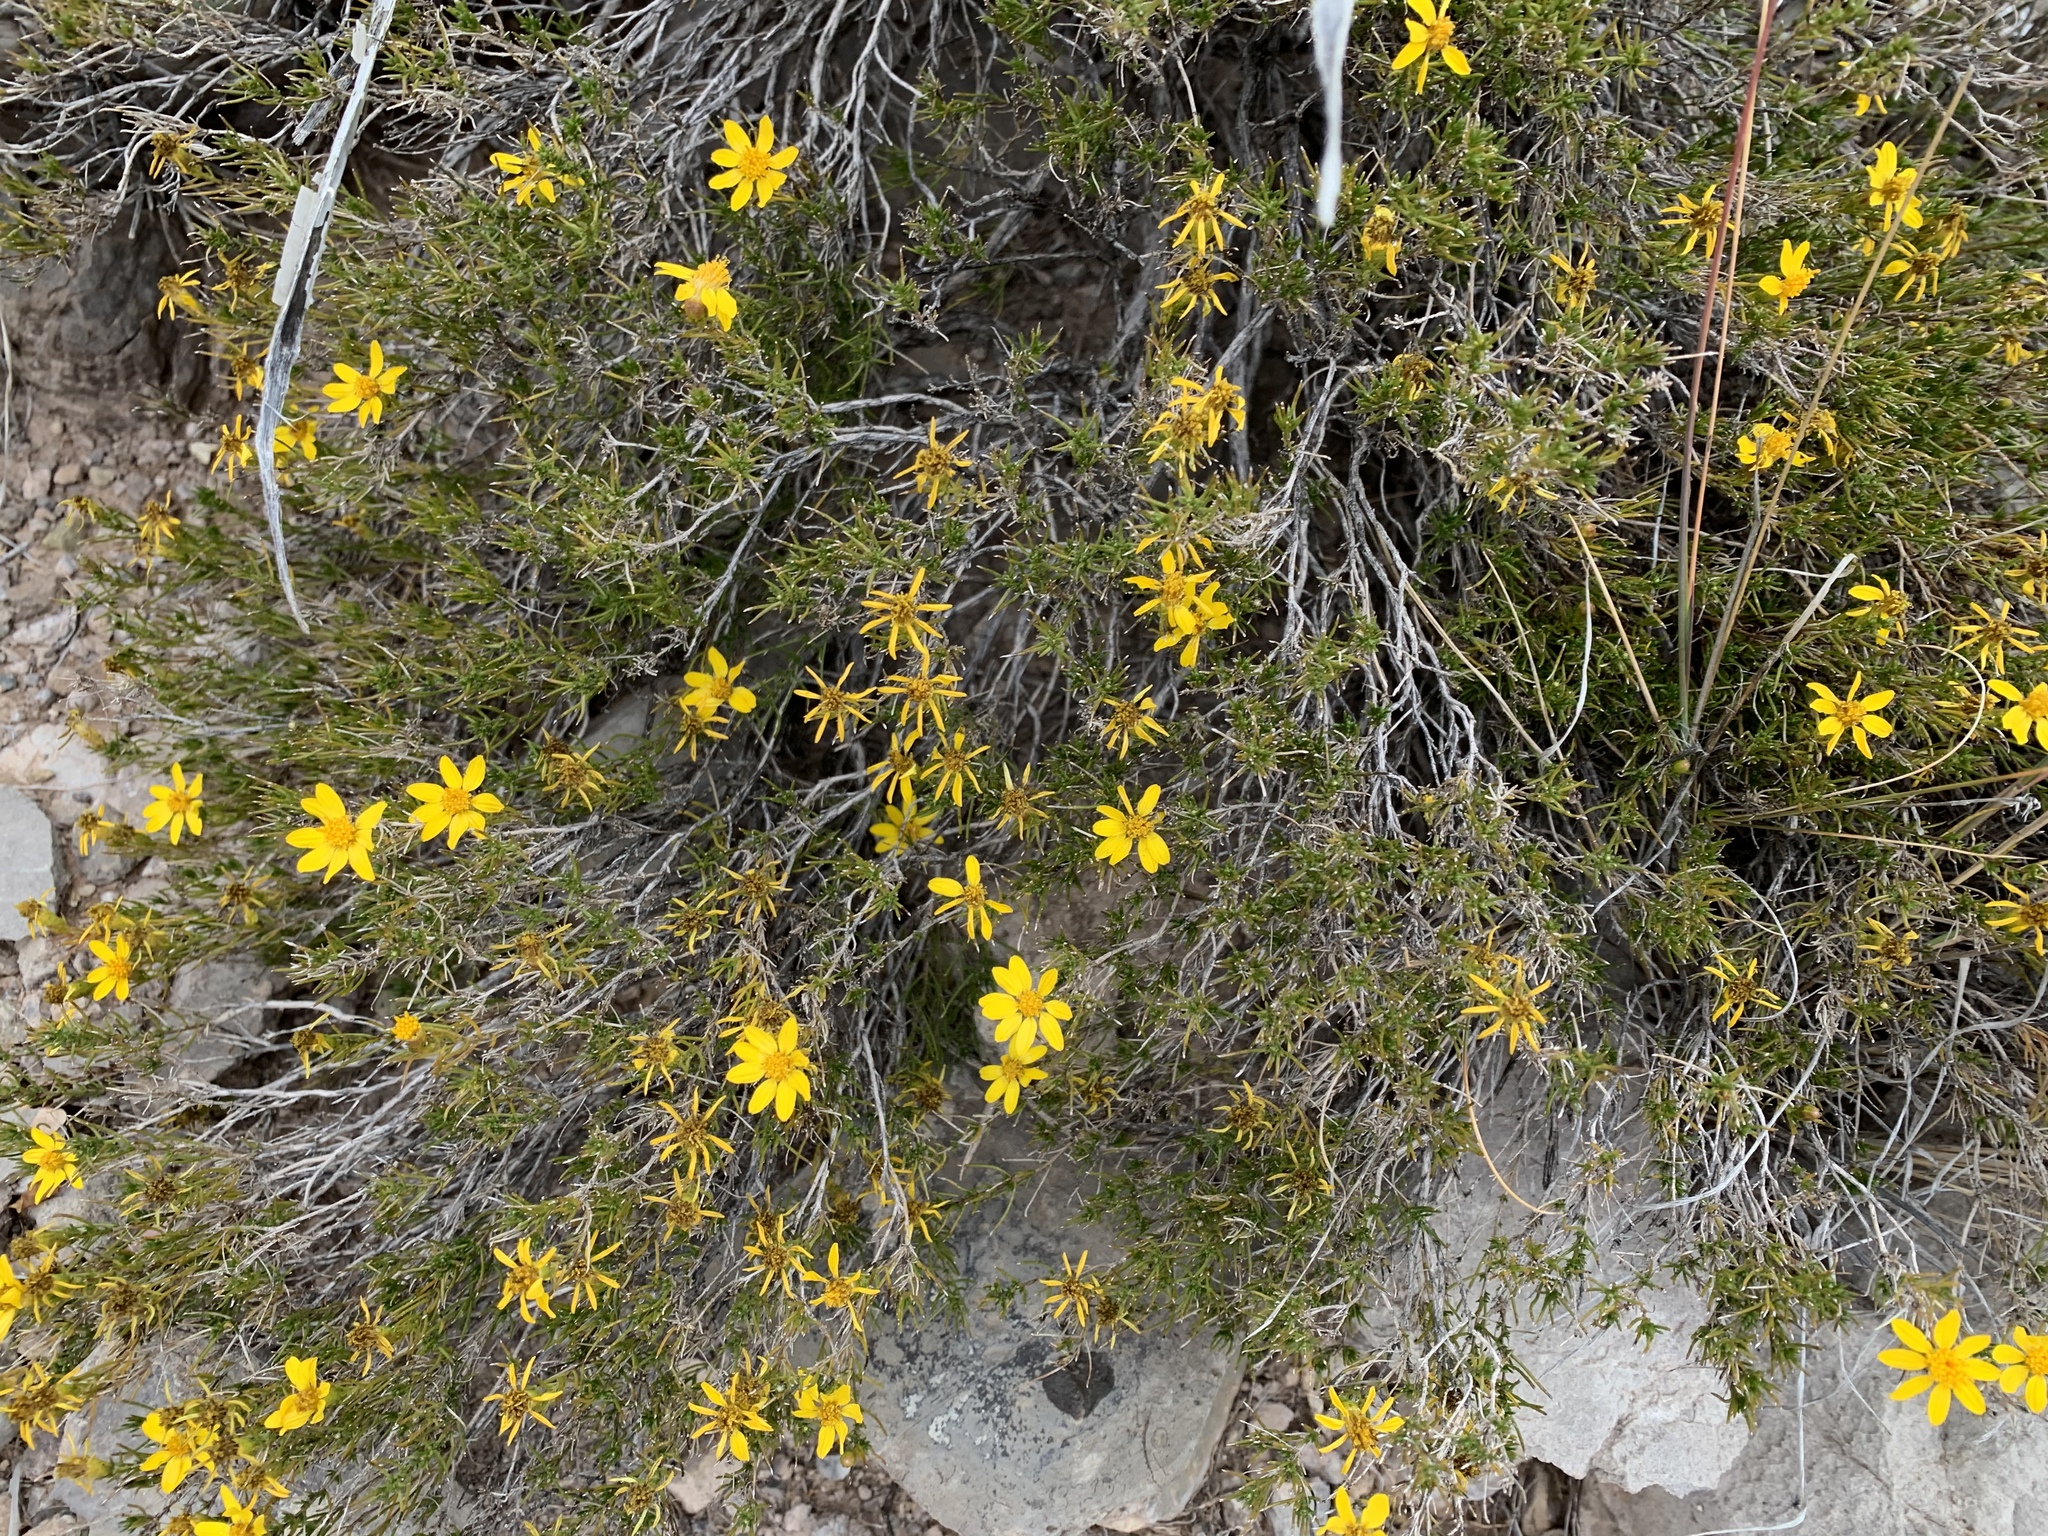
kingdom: Plantae
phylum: Tracheophyta
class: Magnoliopsida
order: Asterales
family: Asteraceae
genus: Thymophylla
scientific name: Thymophylla acerosa
